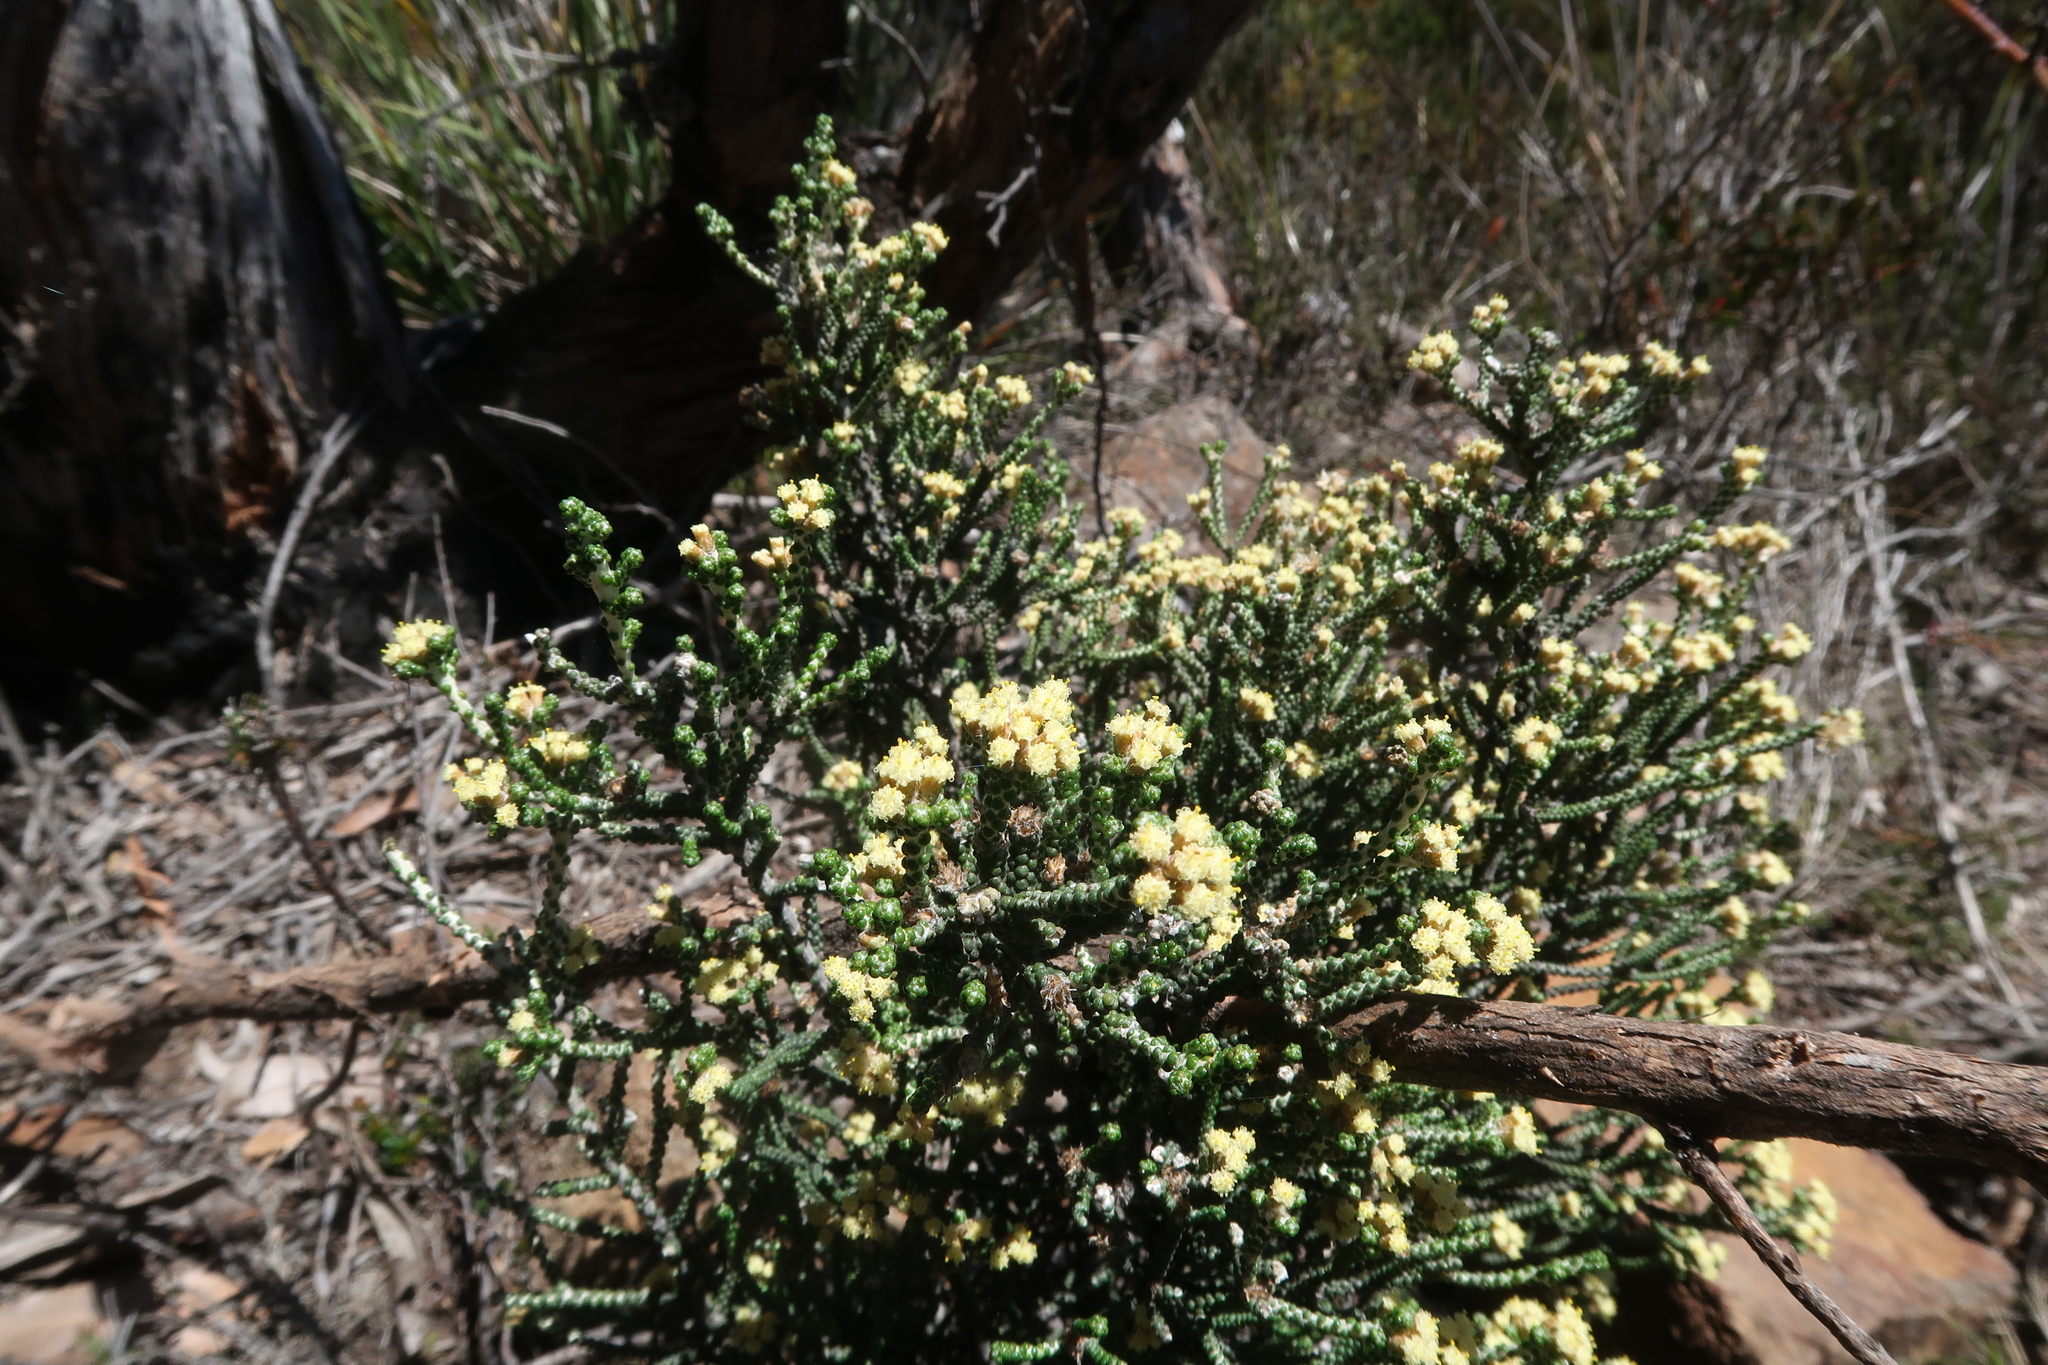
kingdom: Plantae
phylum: Tracheophyta
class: Magnoliopsida
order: Asterales
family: Asteraceae
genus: Ozothamnus
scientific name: Ozothamnus scutellifolius
